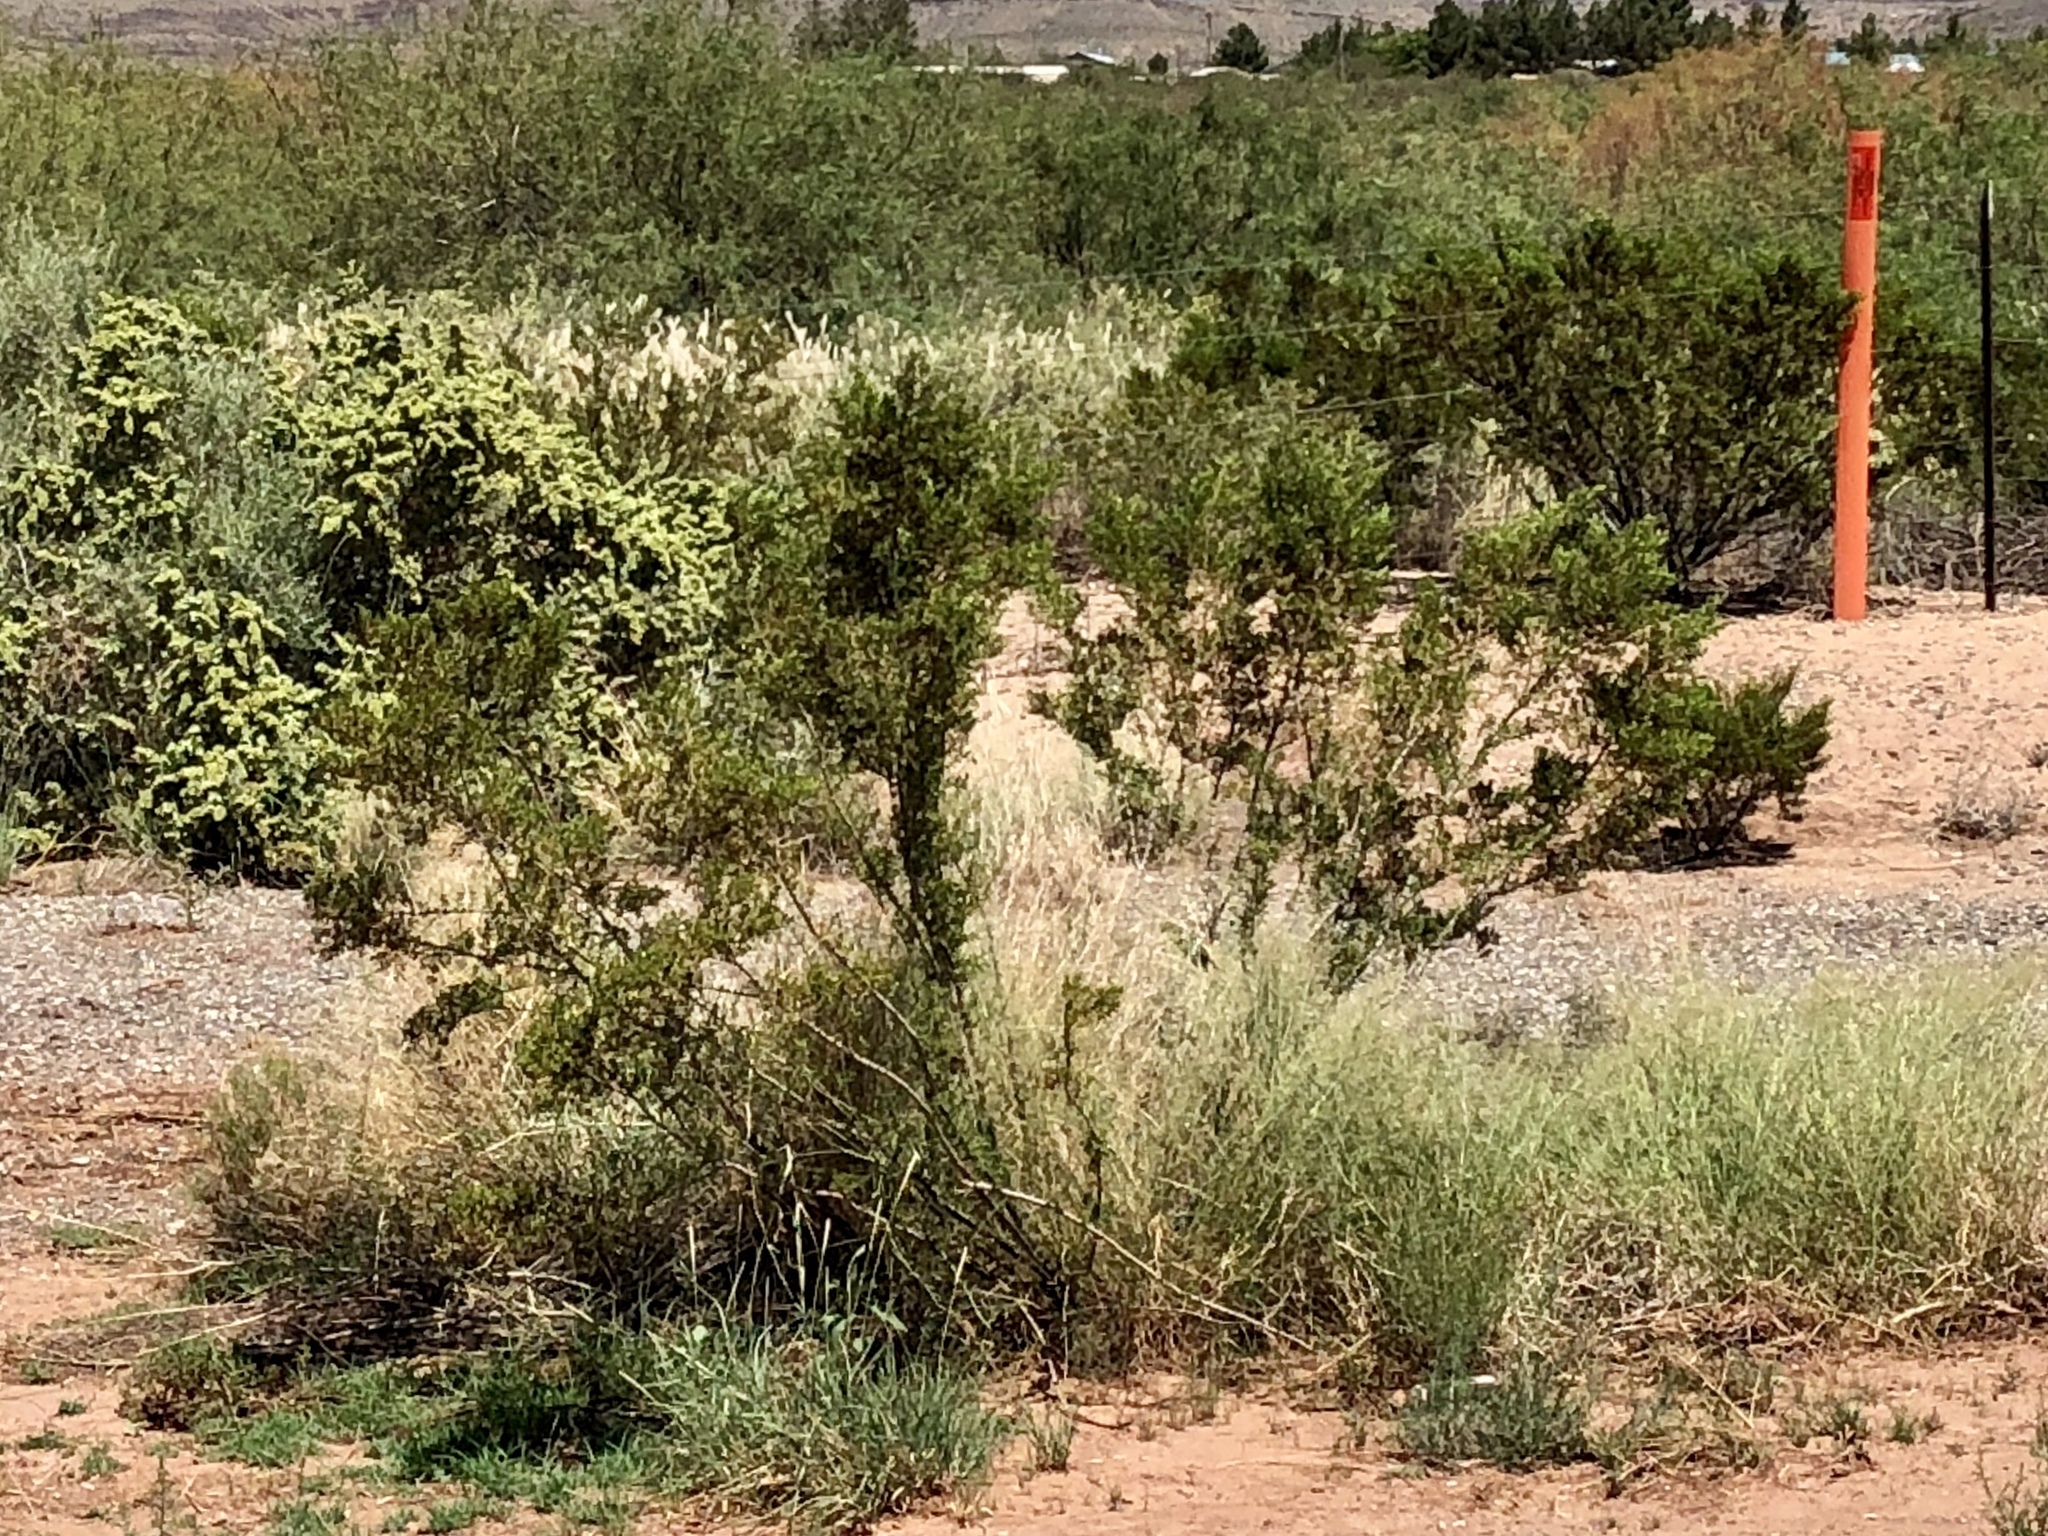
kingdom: Plantae
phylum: Tracheophyta
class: Magnoliopsida
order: Zygophyllales
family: Zygophyllaceae
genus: Larrea
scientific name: Larrea tridentata
